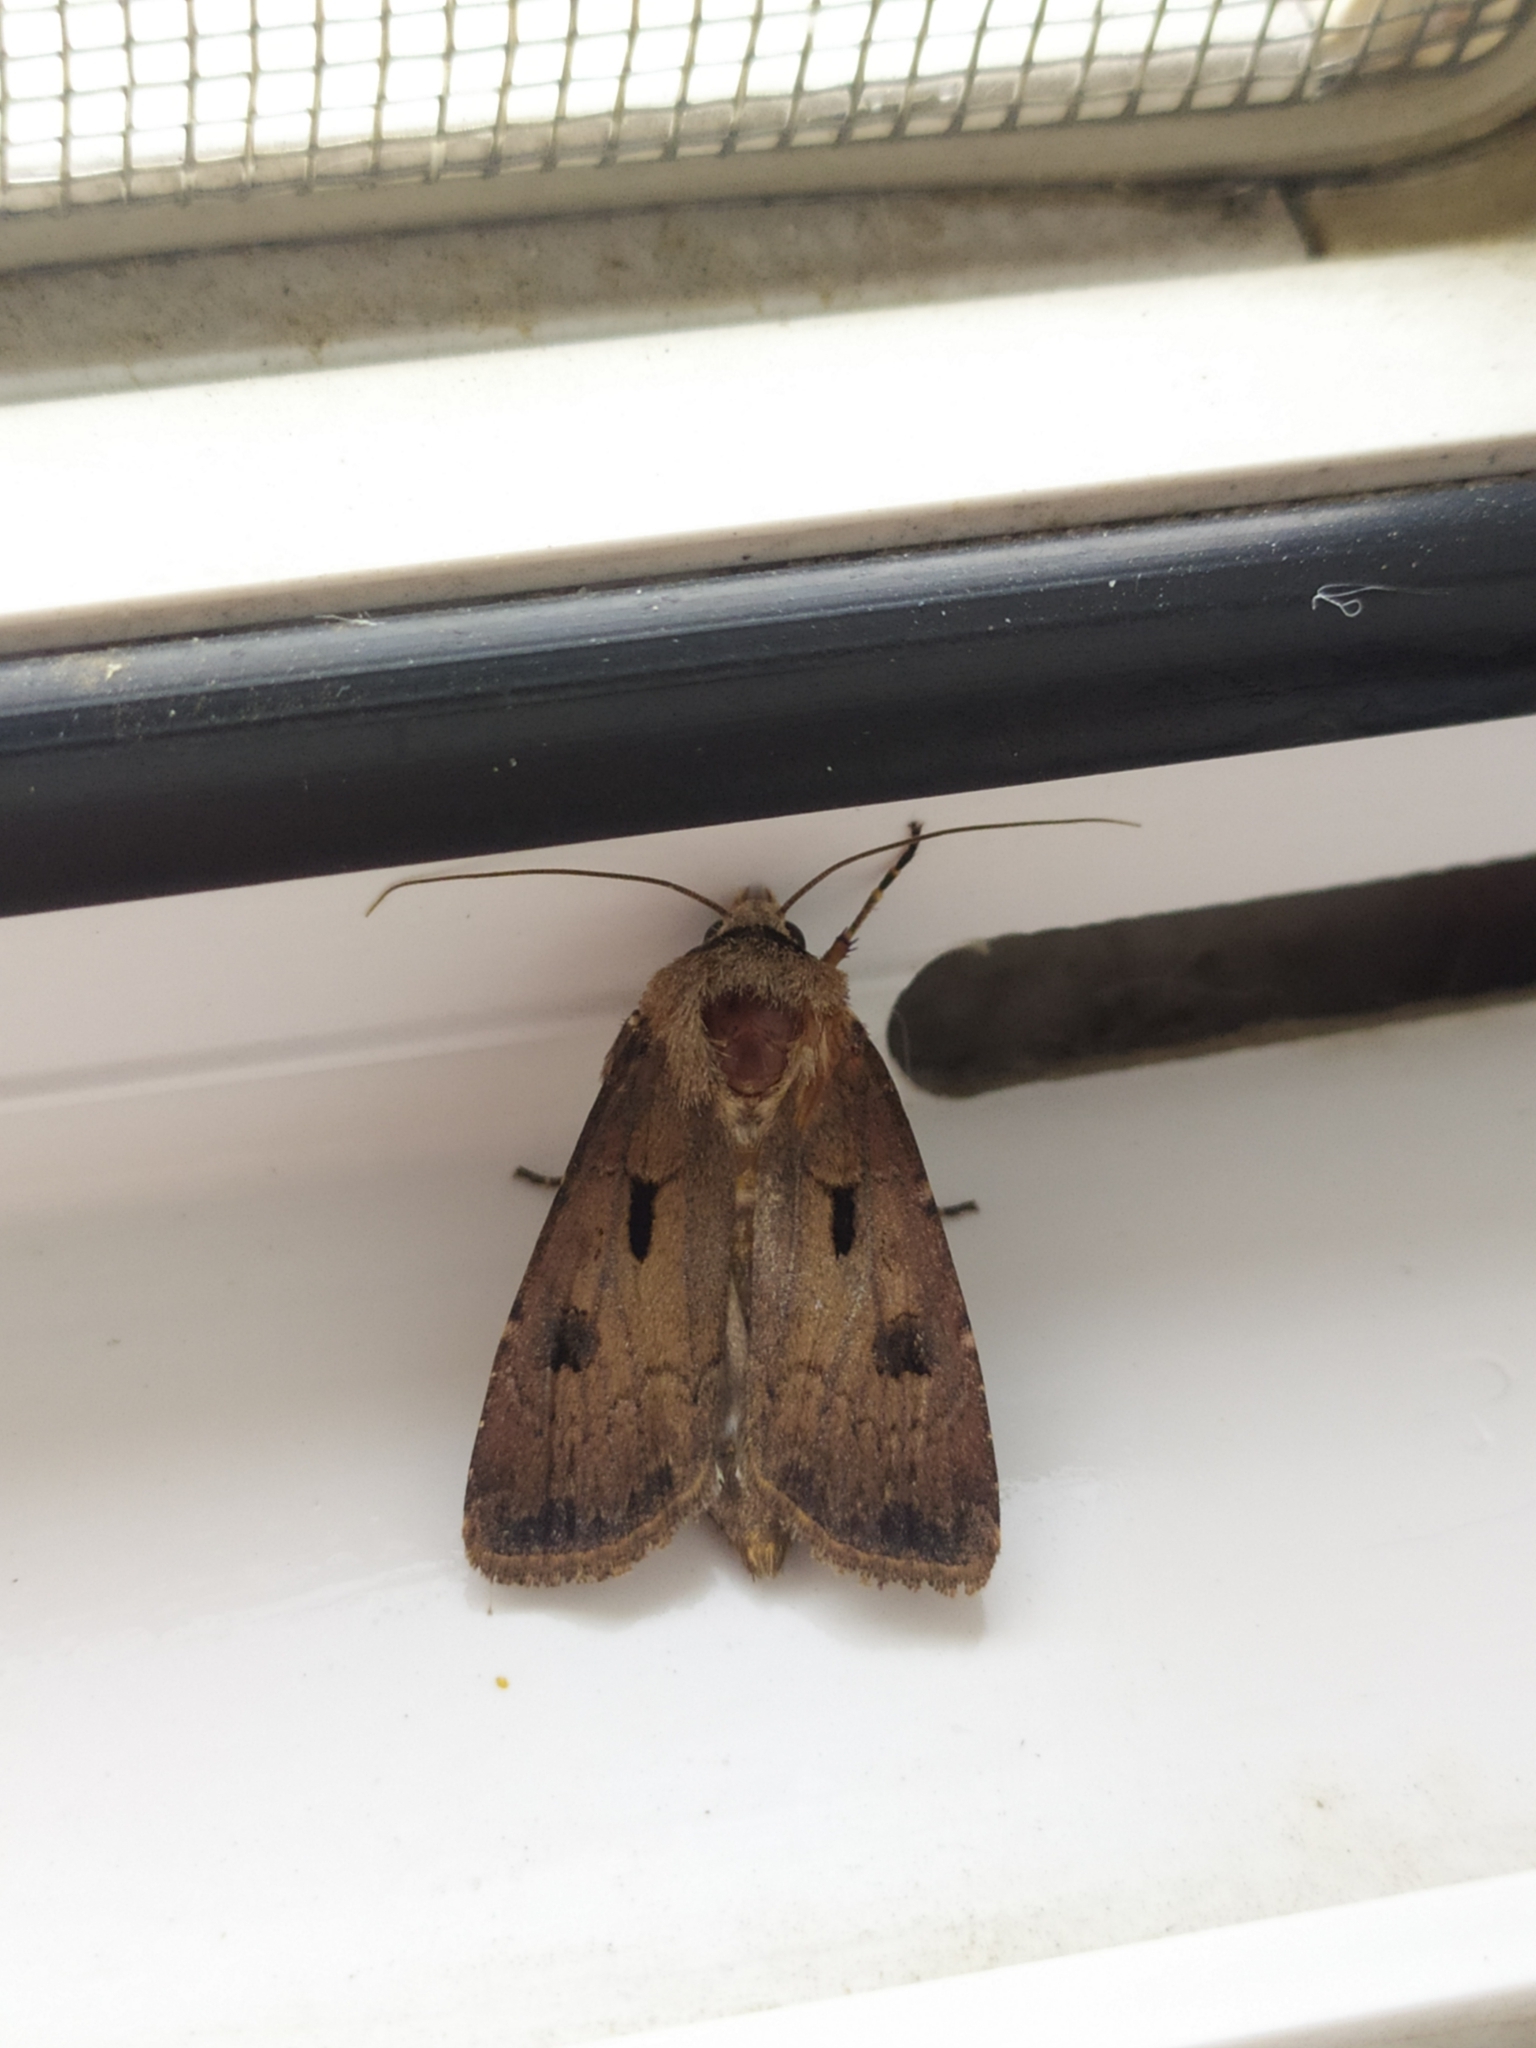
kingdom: Animalia
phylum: Arthropoda
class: Insecta
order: Lepidoptera
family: Noctuidae
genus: Agrotis
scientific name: Agrotis exclamationis
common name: Heart and dart
